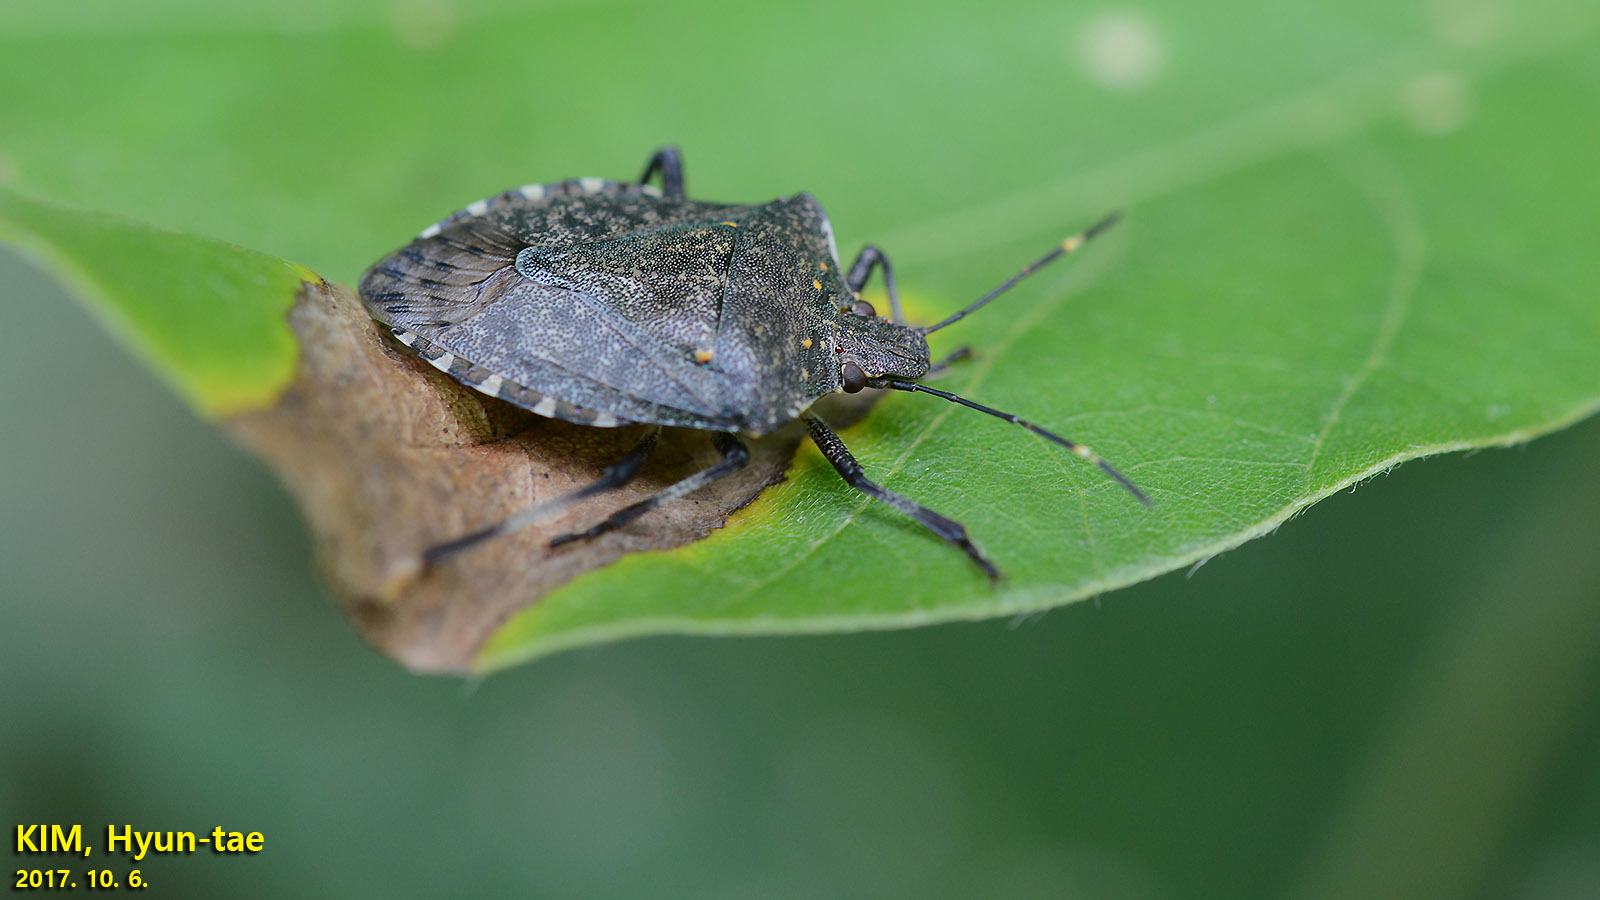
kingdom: Animalia
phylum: Arthropoda
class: Insecta
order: Hemiptera
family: Pentatomidae
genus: Halyomorpha
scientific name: Halyomorpha halys
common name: Brown marmorated stink bug
